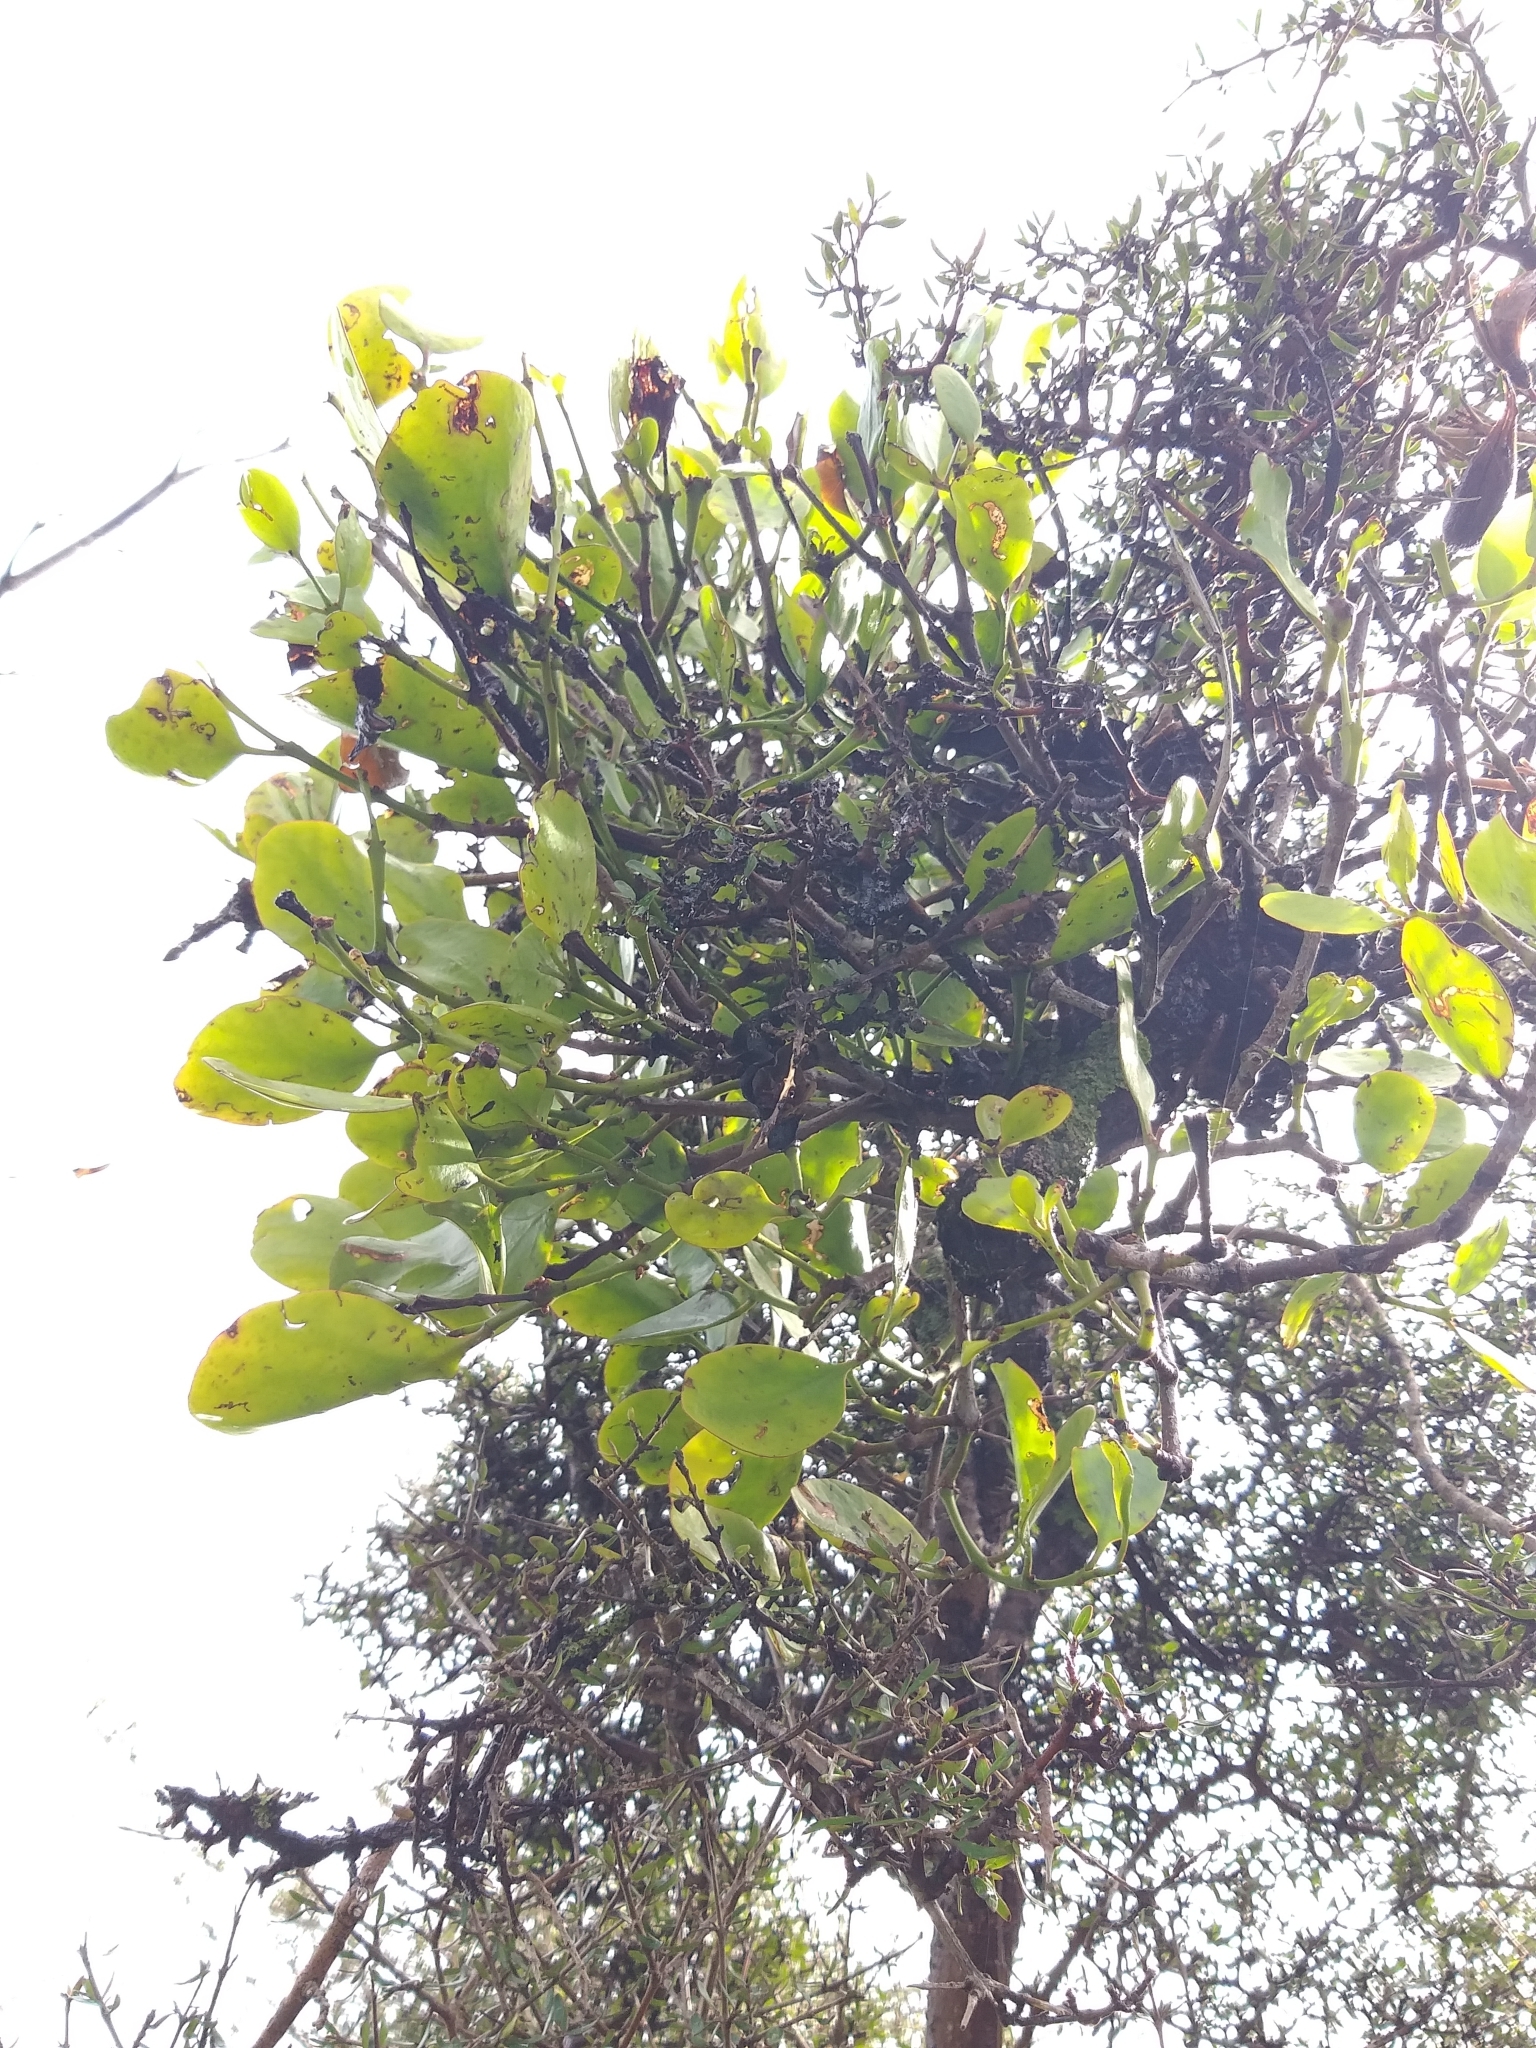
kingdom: Plantae
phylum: Tracheophyta
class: Magnoliopsida
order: Santalales
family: Loranthaceae
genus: Ileostylus
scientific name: Ileostylus micranthus
